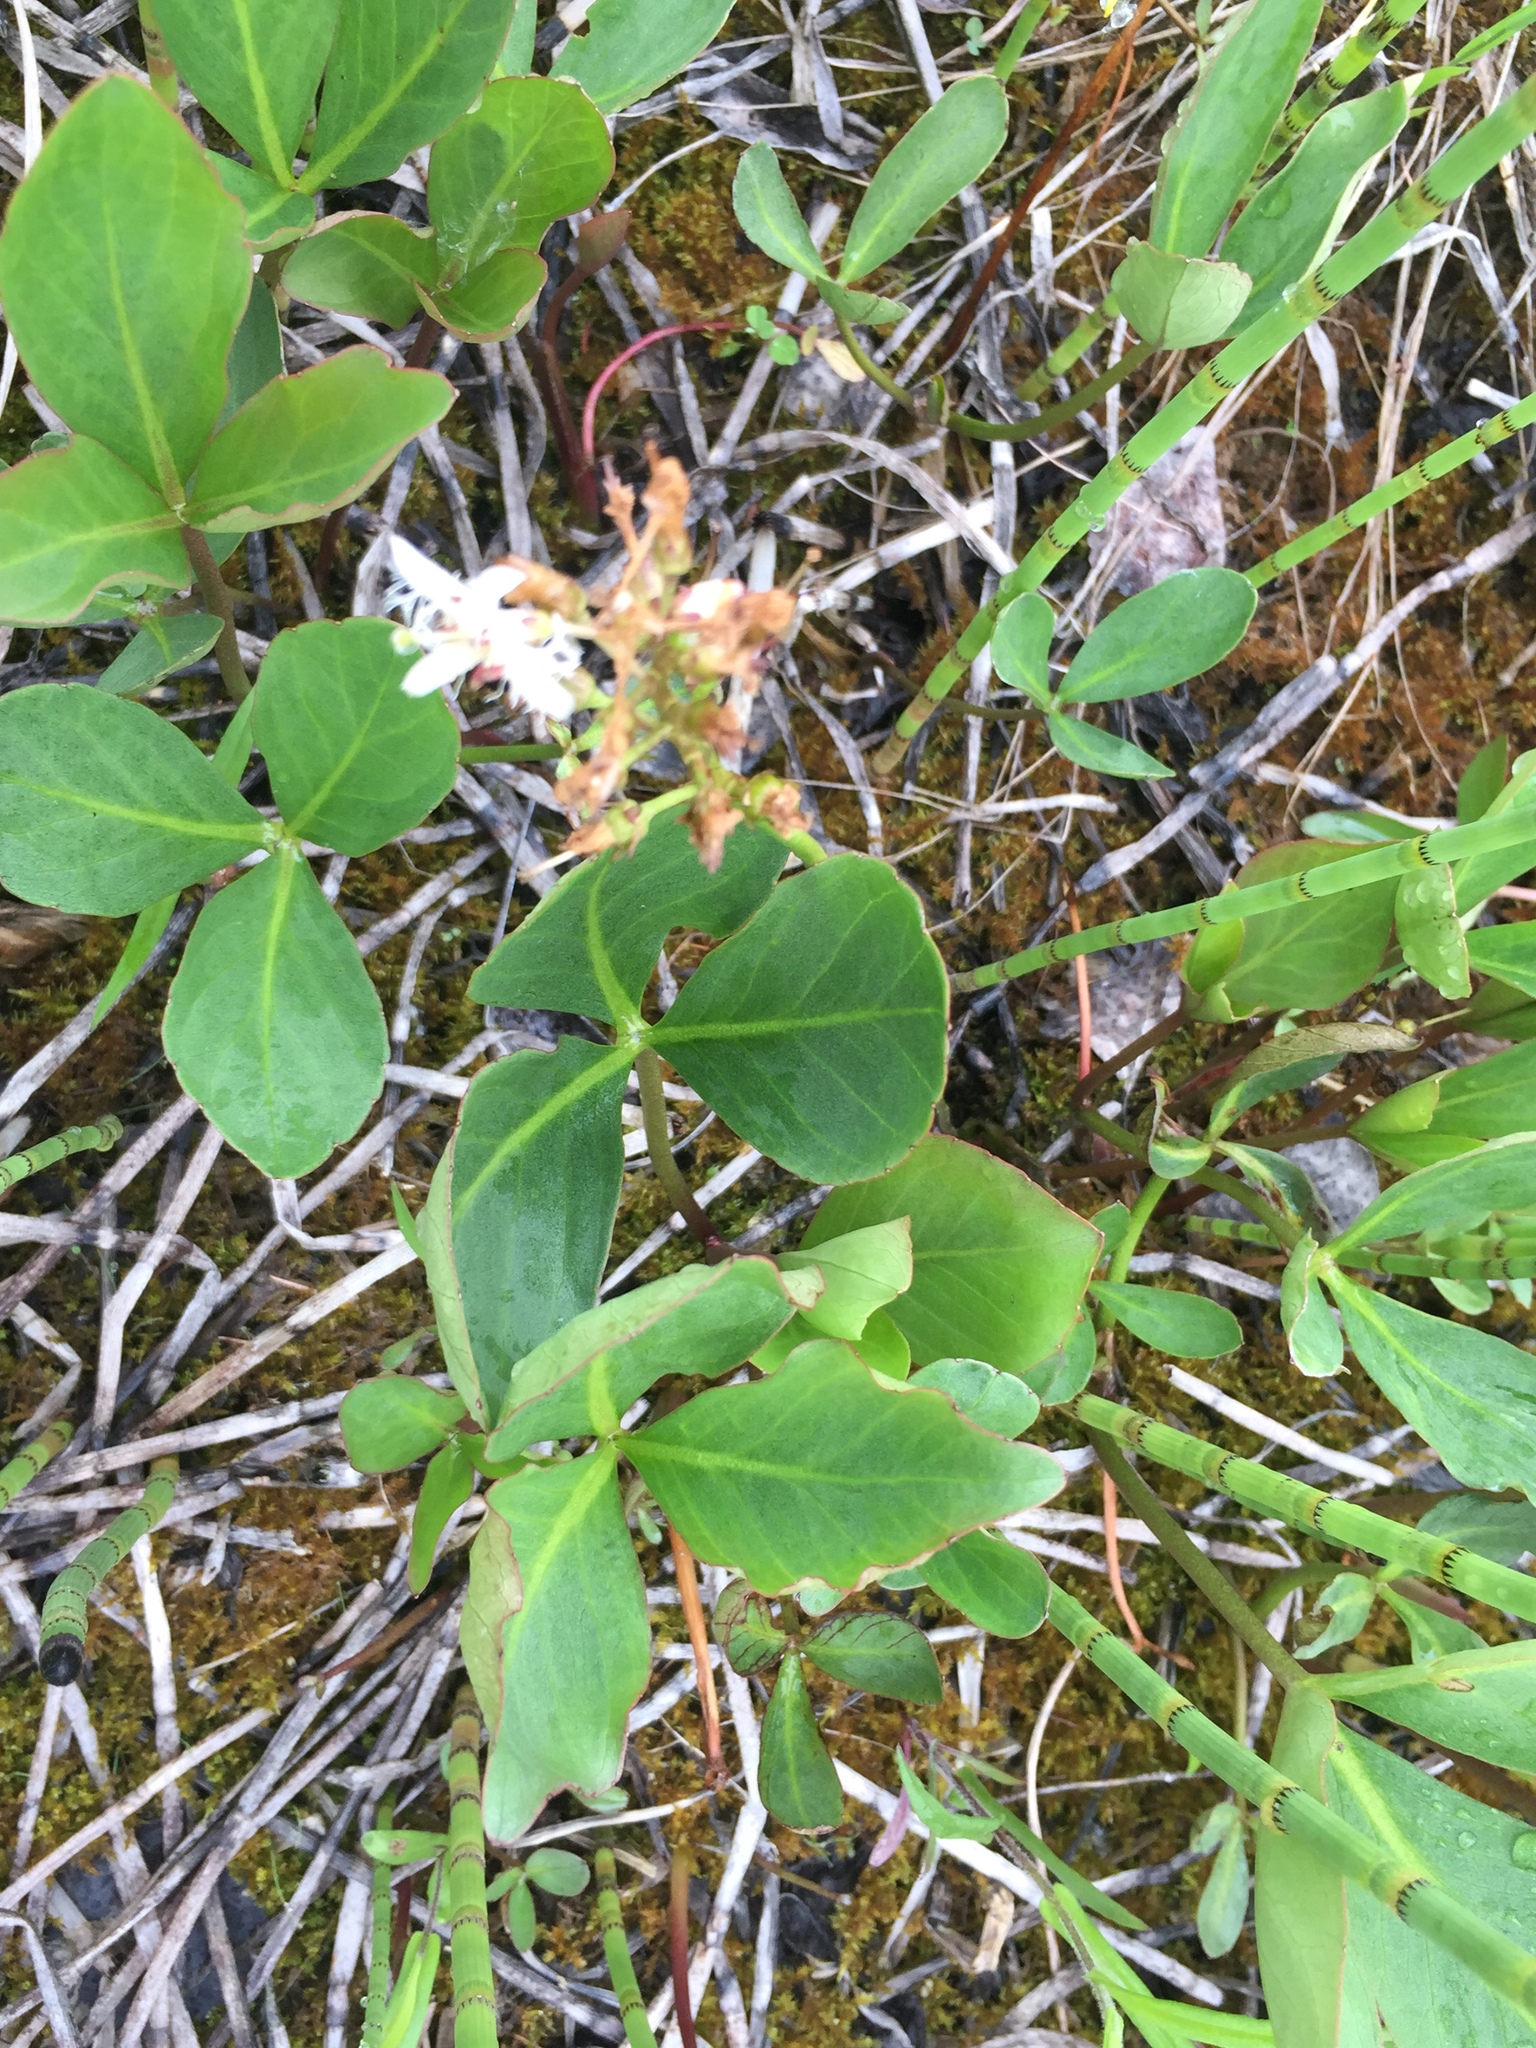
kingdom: Plantae
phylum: Tracheophyta
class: Magnoliopsida
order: Asterales
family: Menyanthaceae
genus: Menyanthes
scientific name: Menyanthes trifoliata
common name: Bogbean
